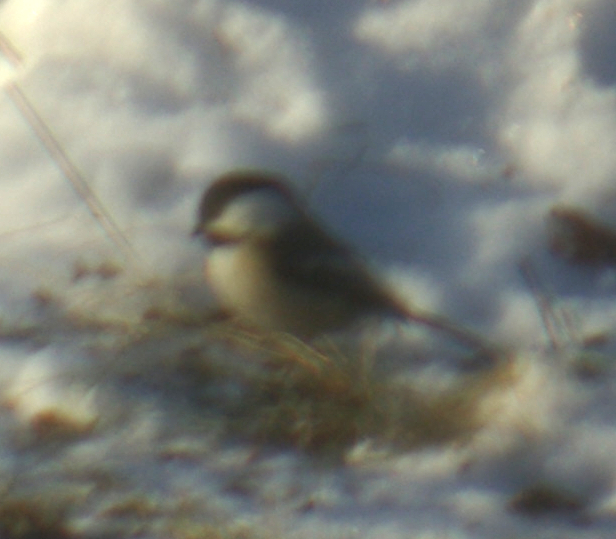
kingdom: Animalia
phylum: Chordata
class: Aves
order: Passeriformes
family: Paridae
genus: Poecile
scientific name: Poecile atricapillus
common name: Black-capped chickadee
